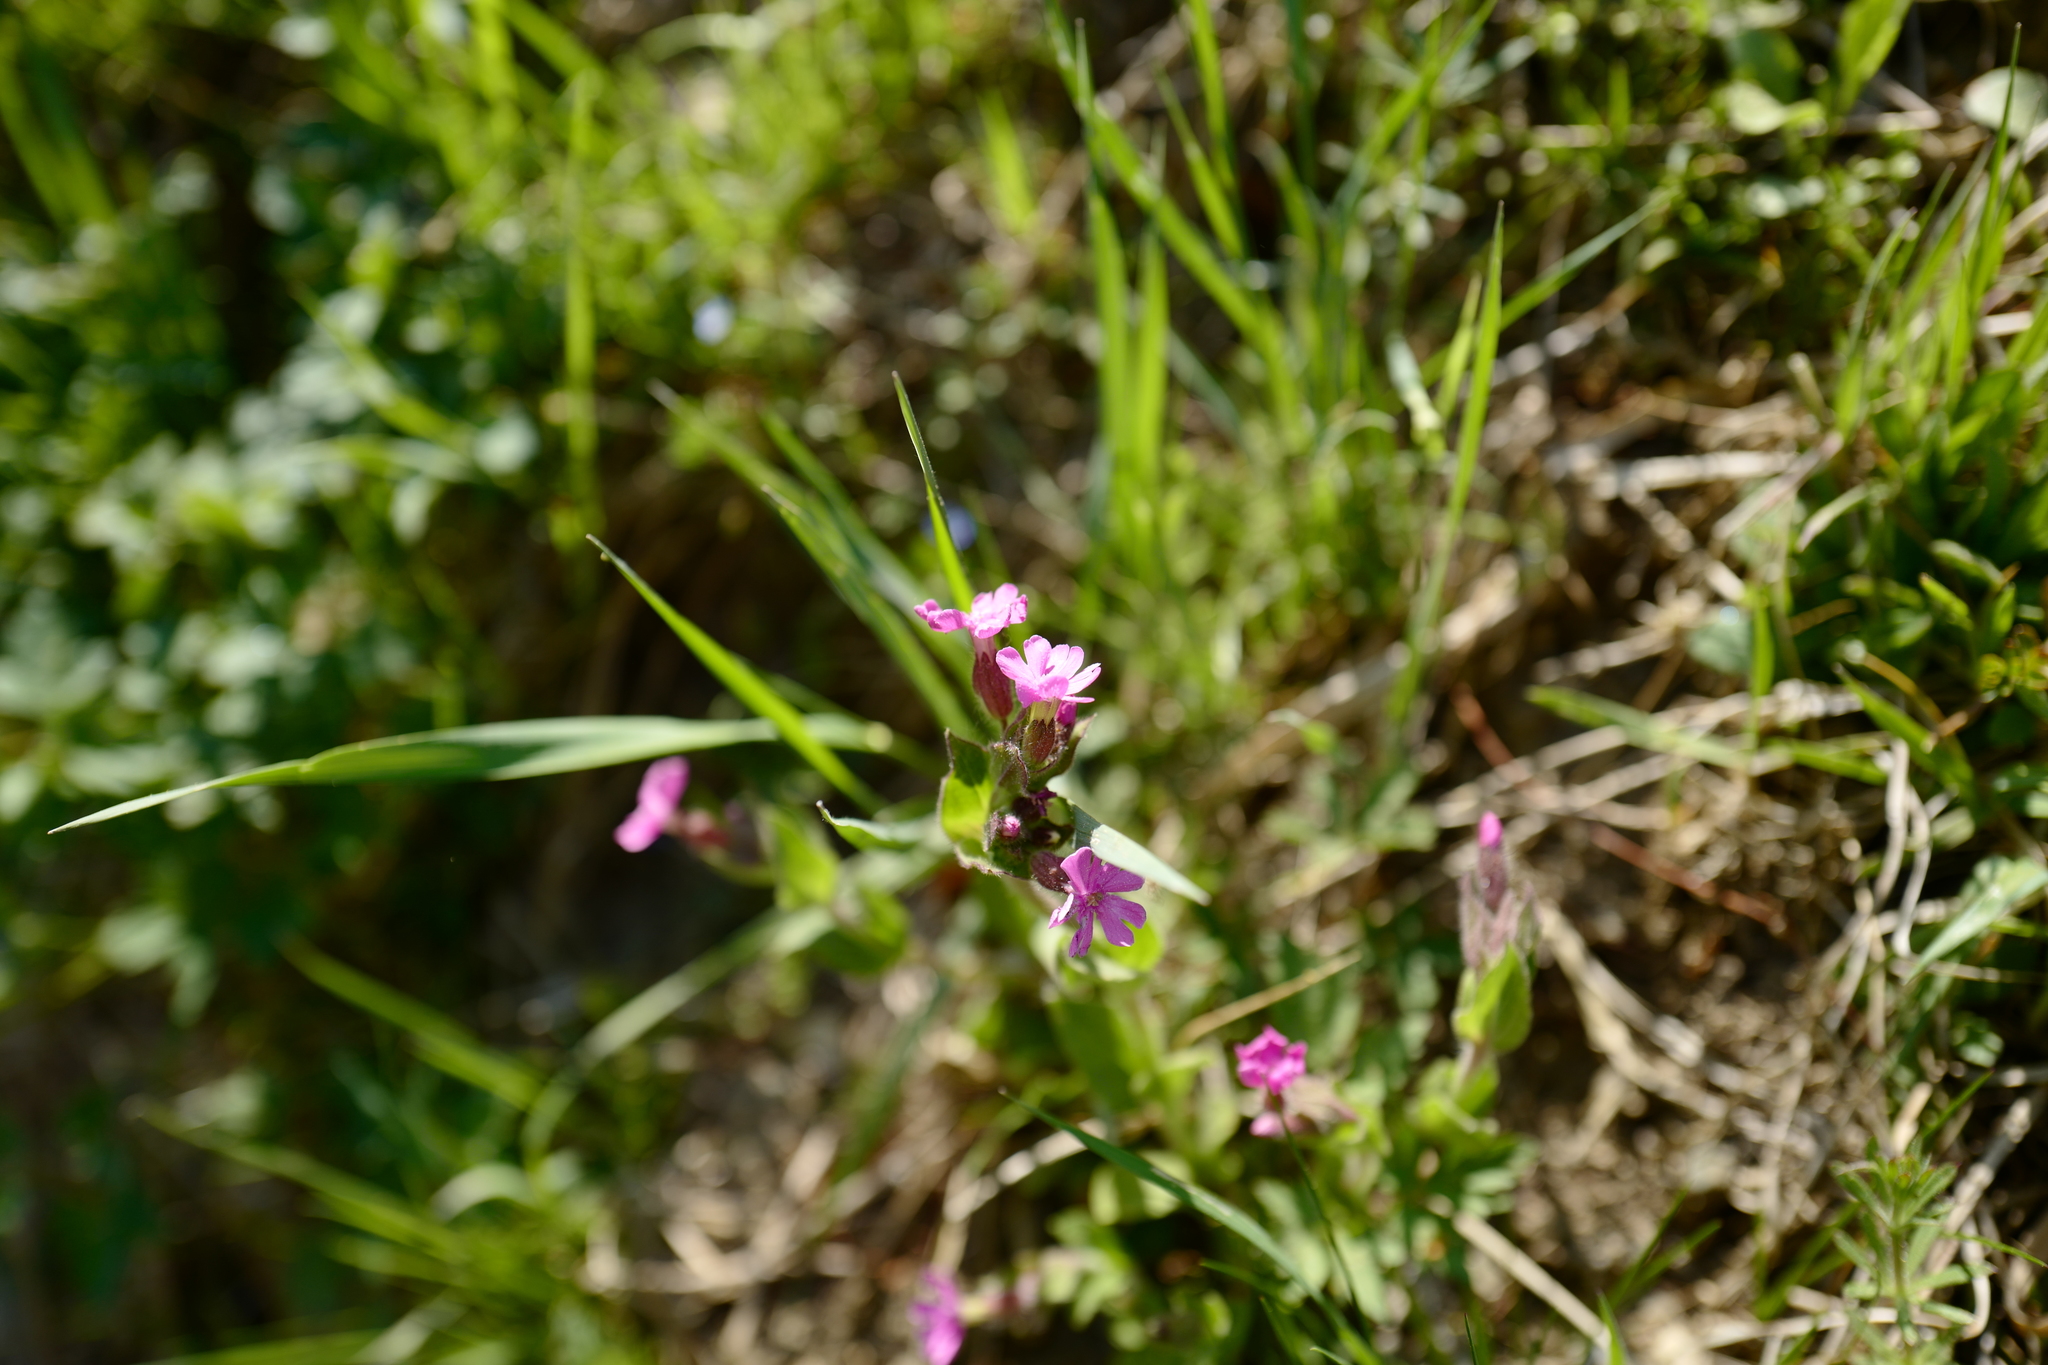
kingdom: Plantae
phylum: Tracheophyta
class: Magnoliopsida
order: Caryophyllales
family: Caryophyllaceae
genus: Silene
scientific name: Silene dioica
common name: Red campion
